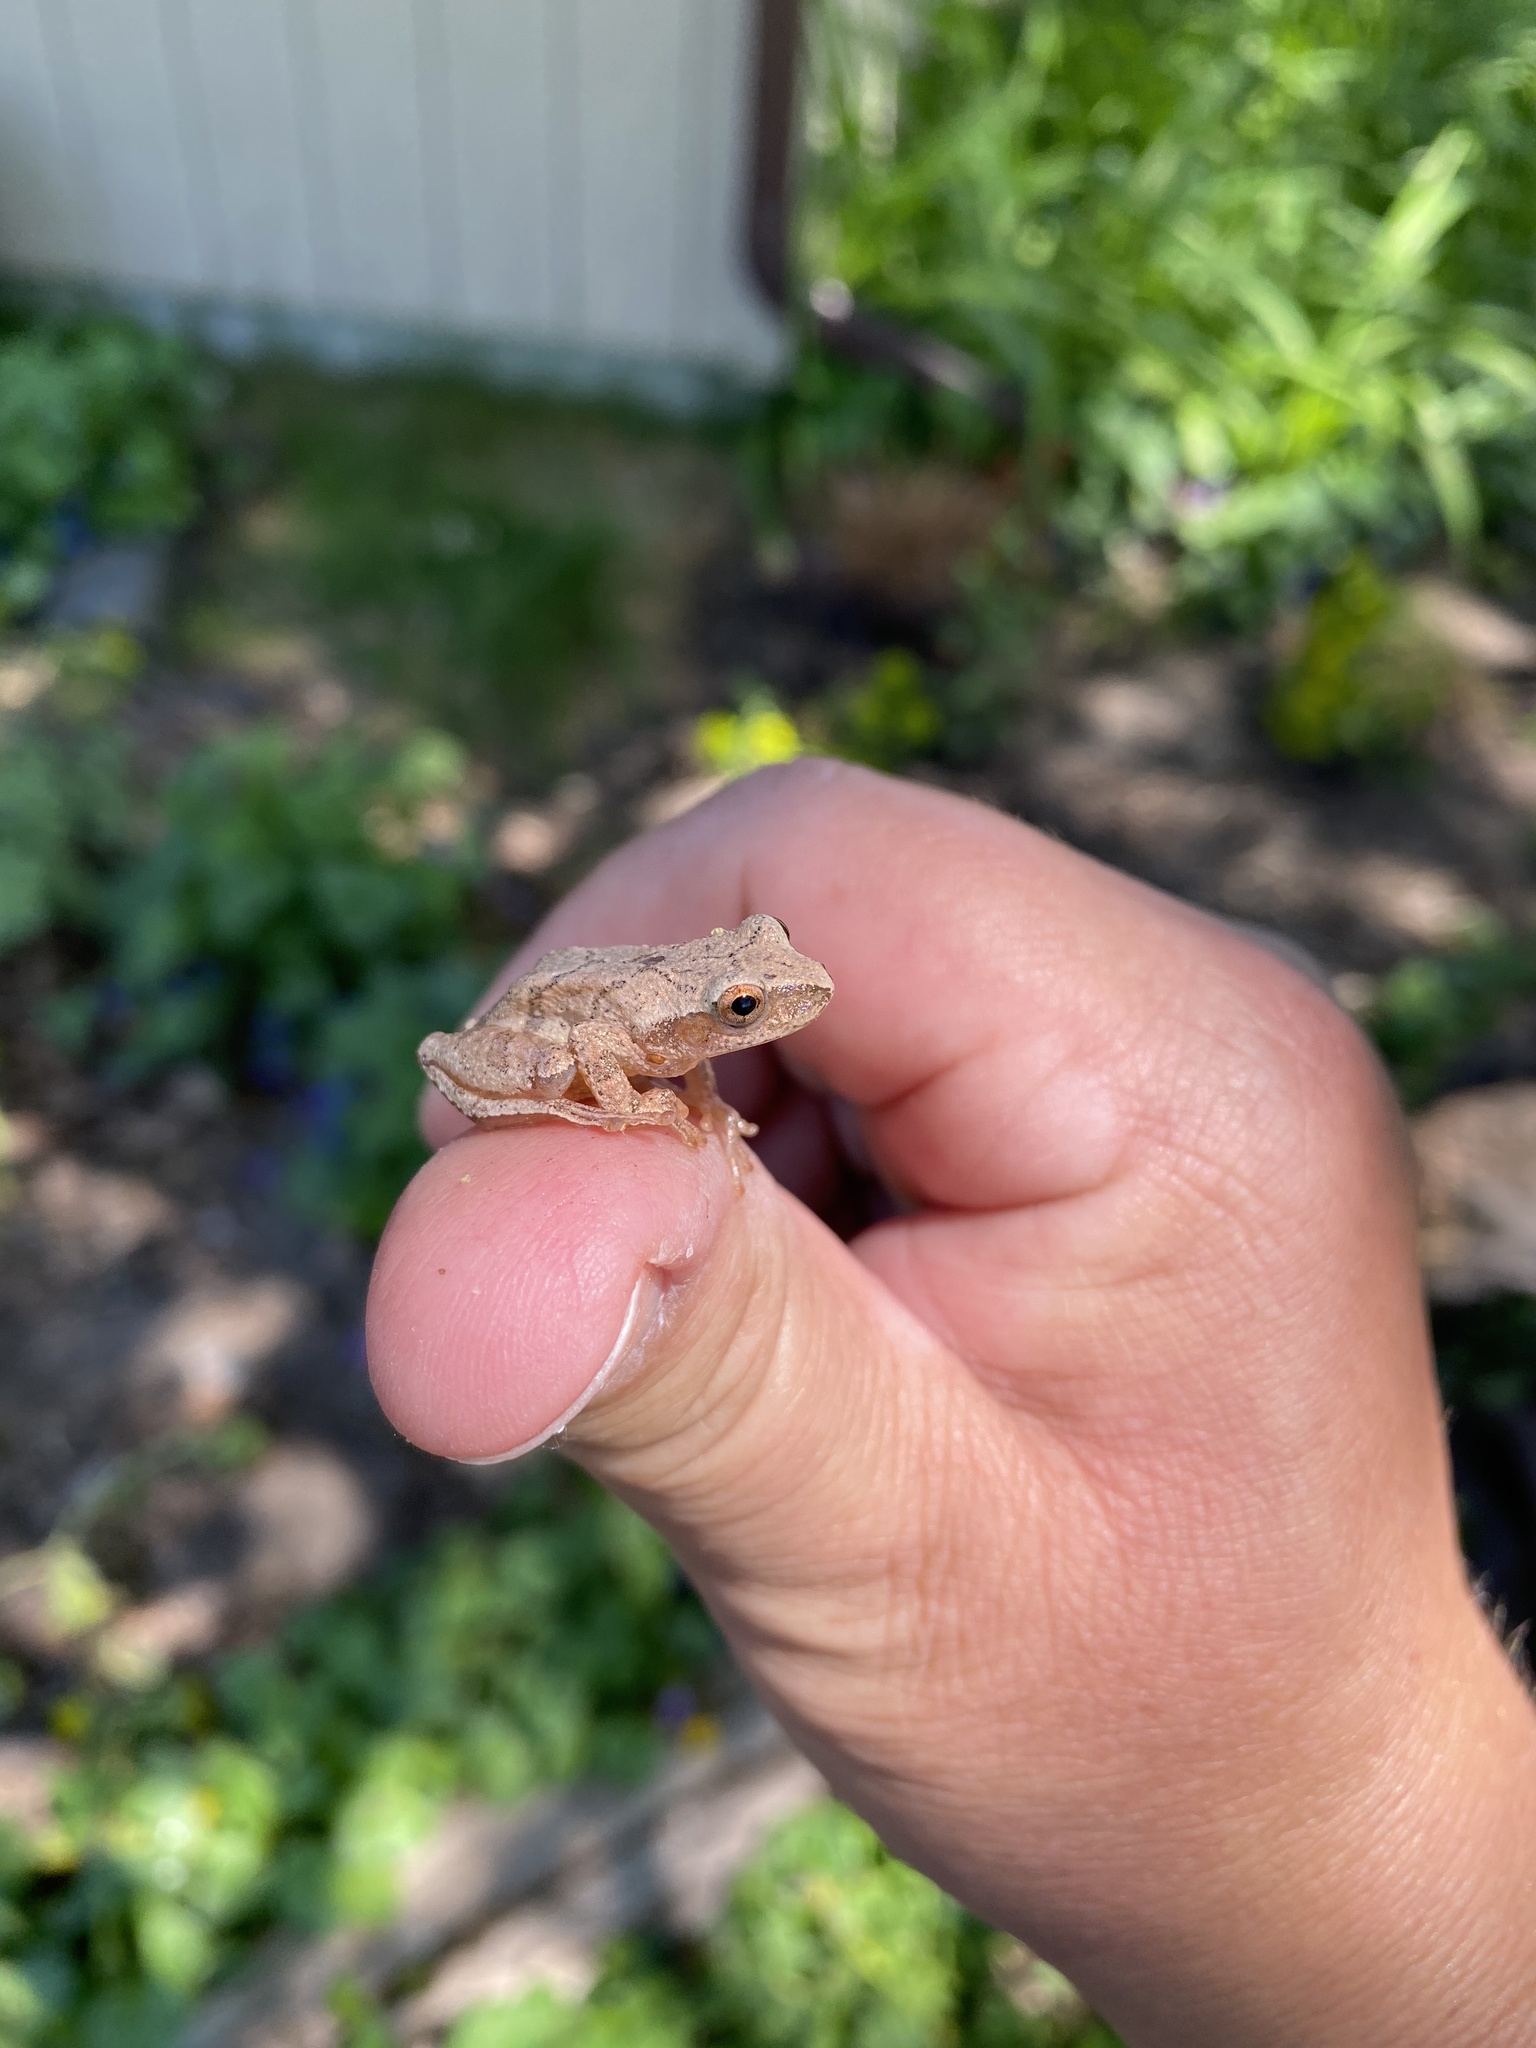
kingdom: Animalia
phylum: Chordata
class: Amphibia
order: Anura
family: Hylidae
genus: Pseudacris
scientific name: Pseudacris crucifer
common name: Spring peeper
